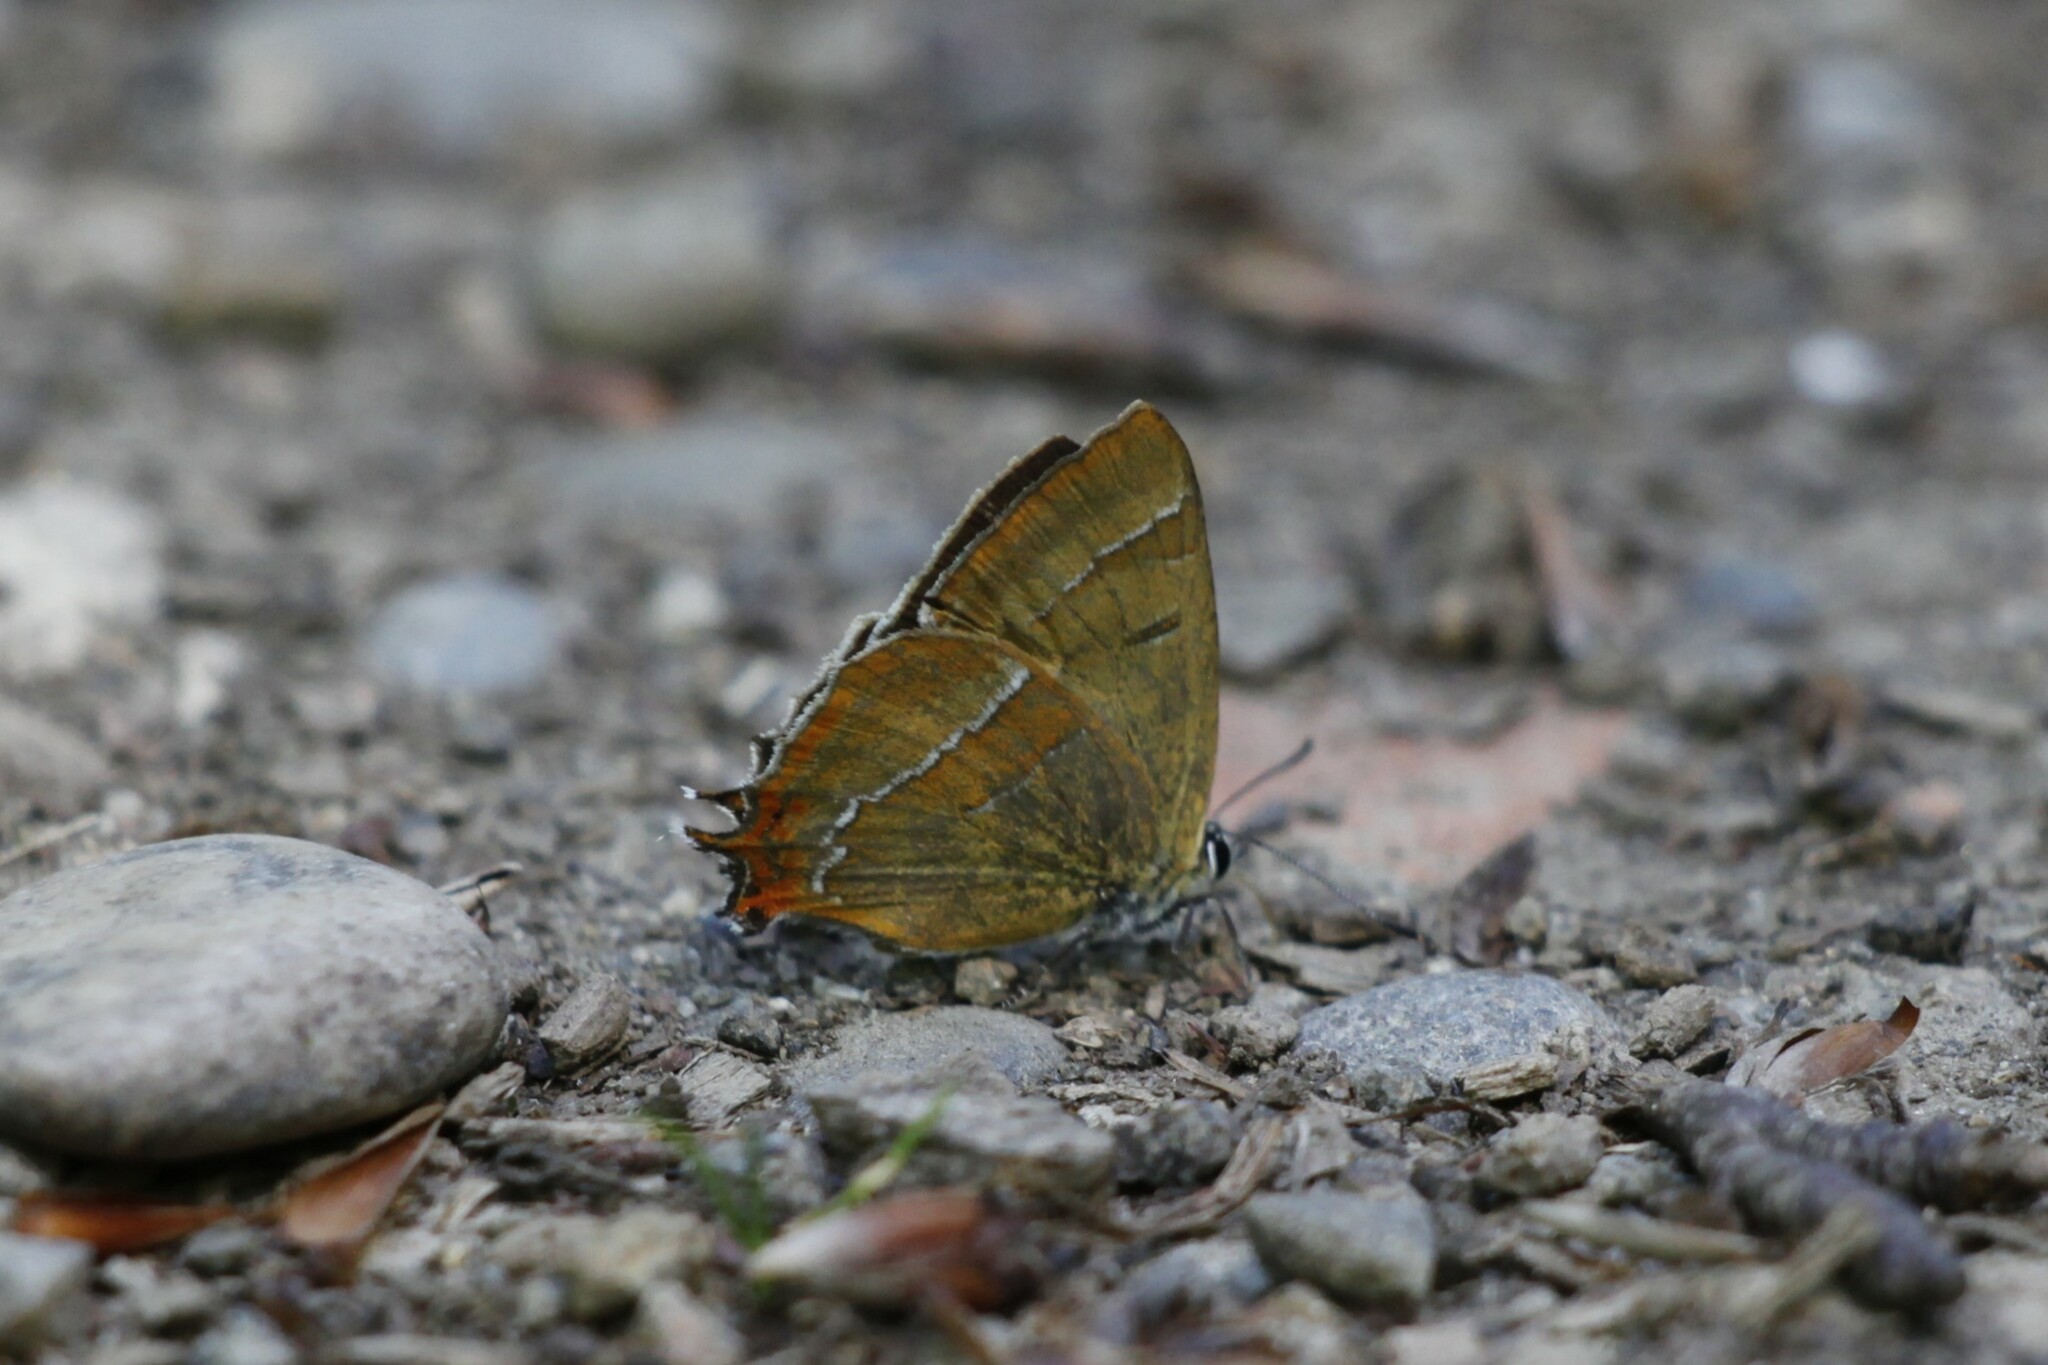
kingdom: Animalia
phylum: Arthropoda
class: Insecta
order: Lepidoptera
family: Lycaenidae
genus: Thecla
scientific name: Thecla betulae
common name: Brown hairstreak
